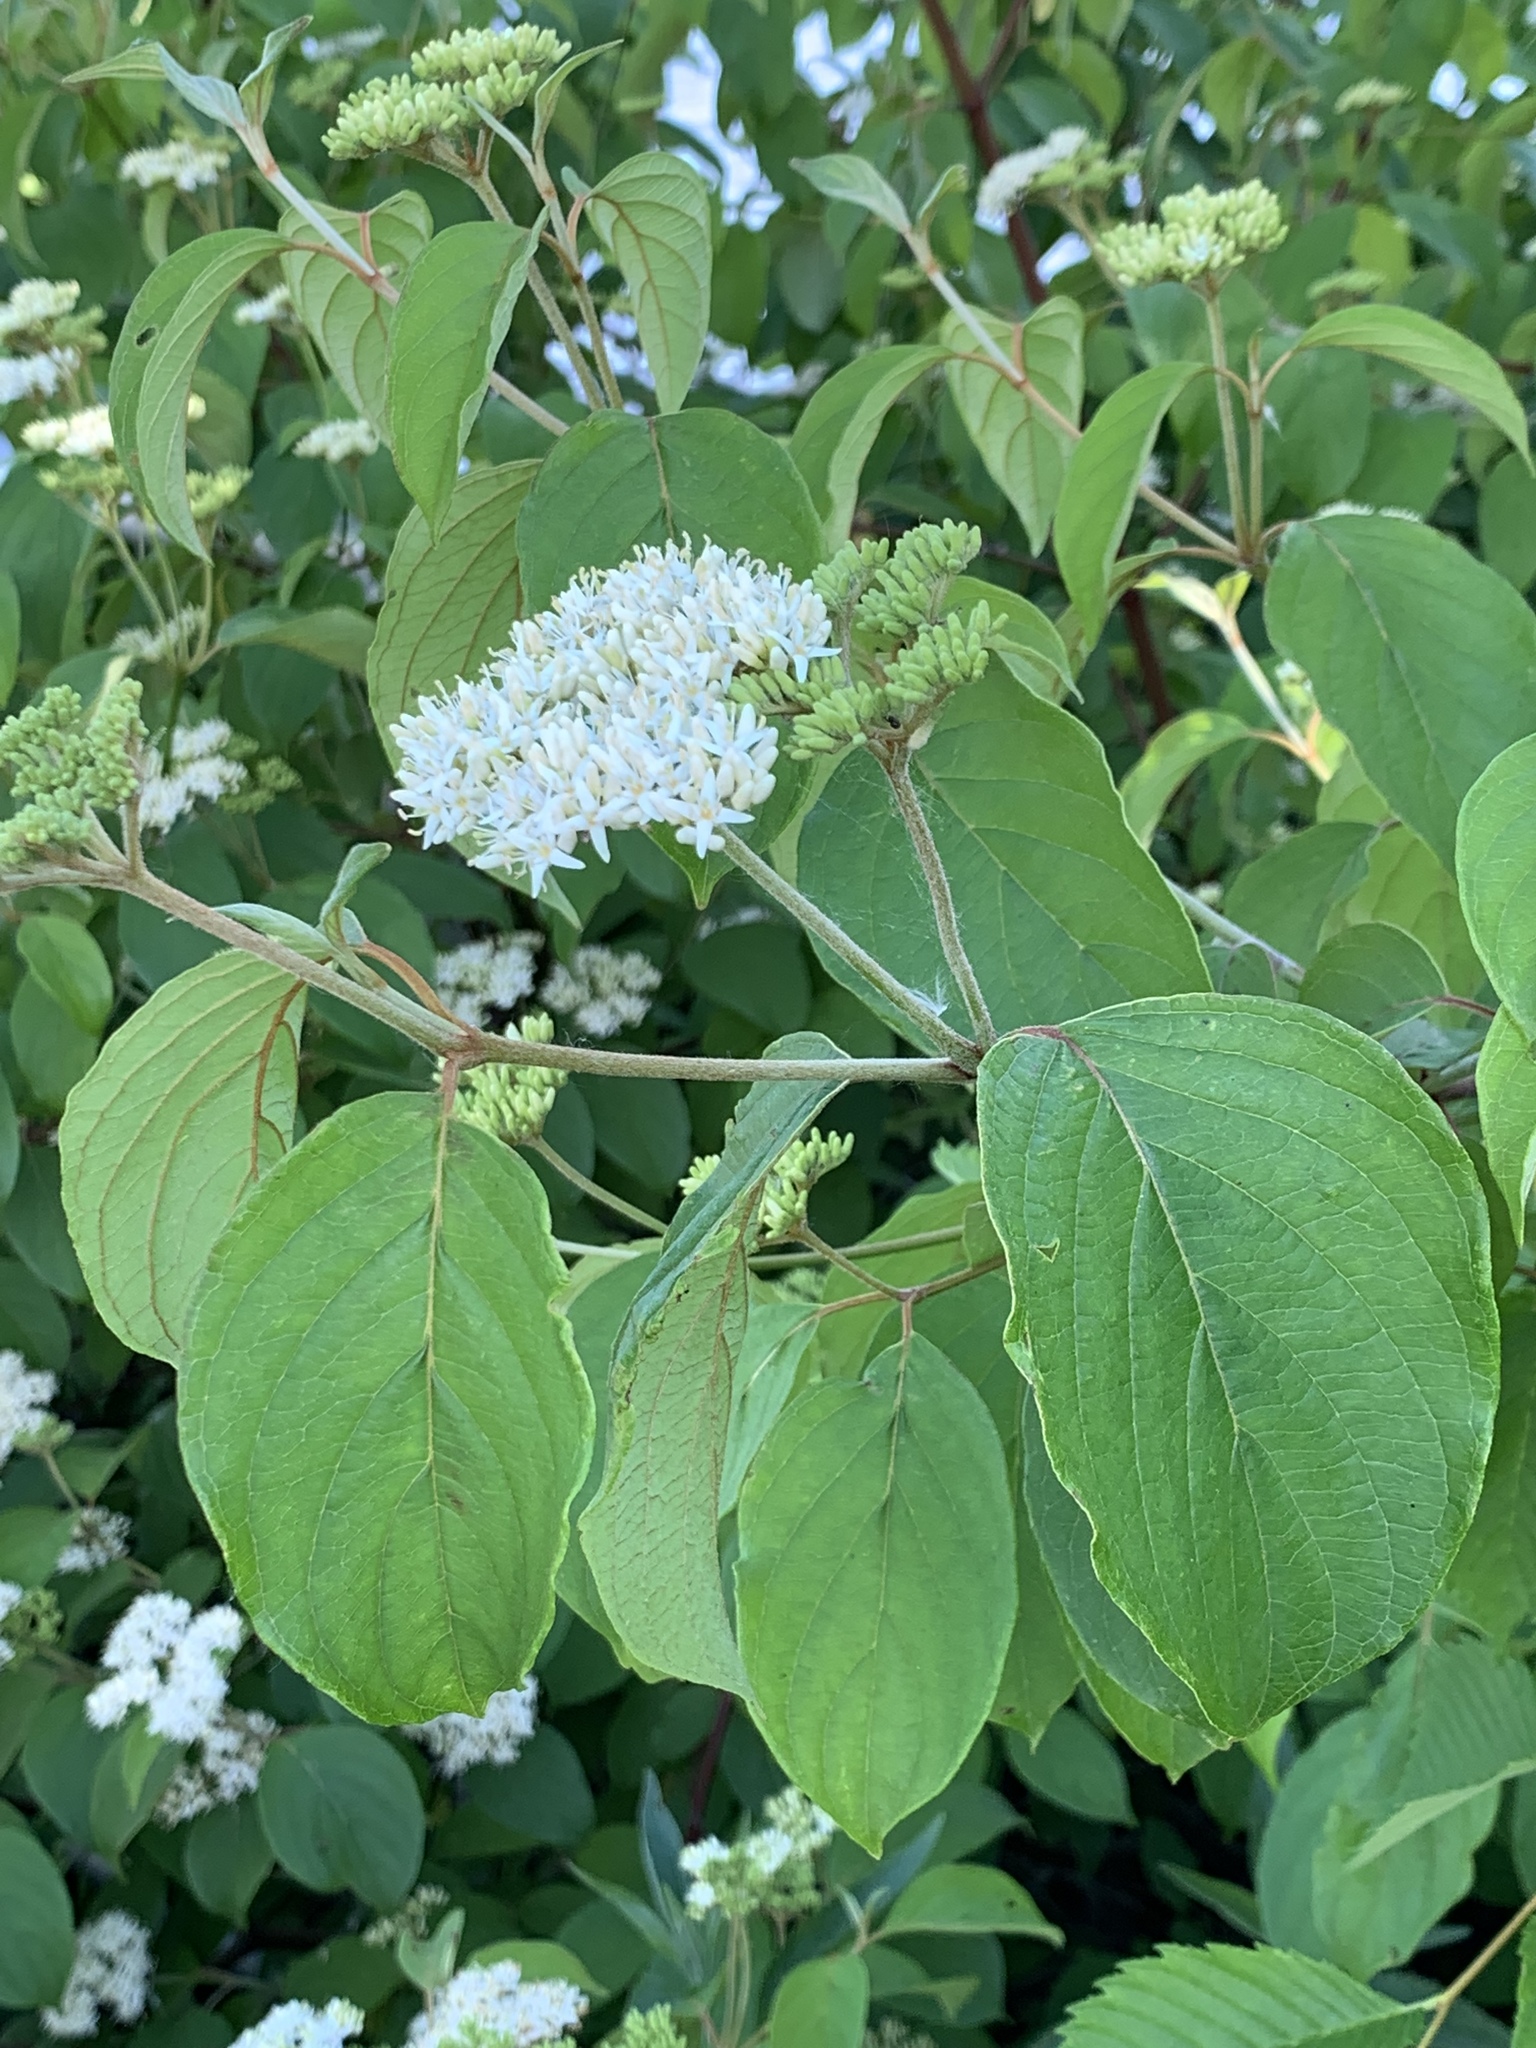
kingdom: Plantae
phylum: Tracheophyta
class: Magnoliopsida
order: Cornales
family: Cornaceae
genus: Cornus
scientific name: Cornus amomum
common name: Silky dogwood
